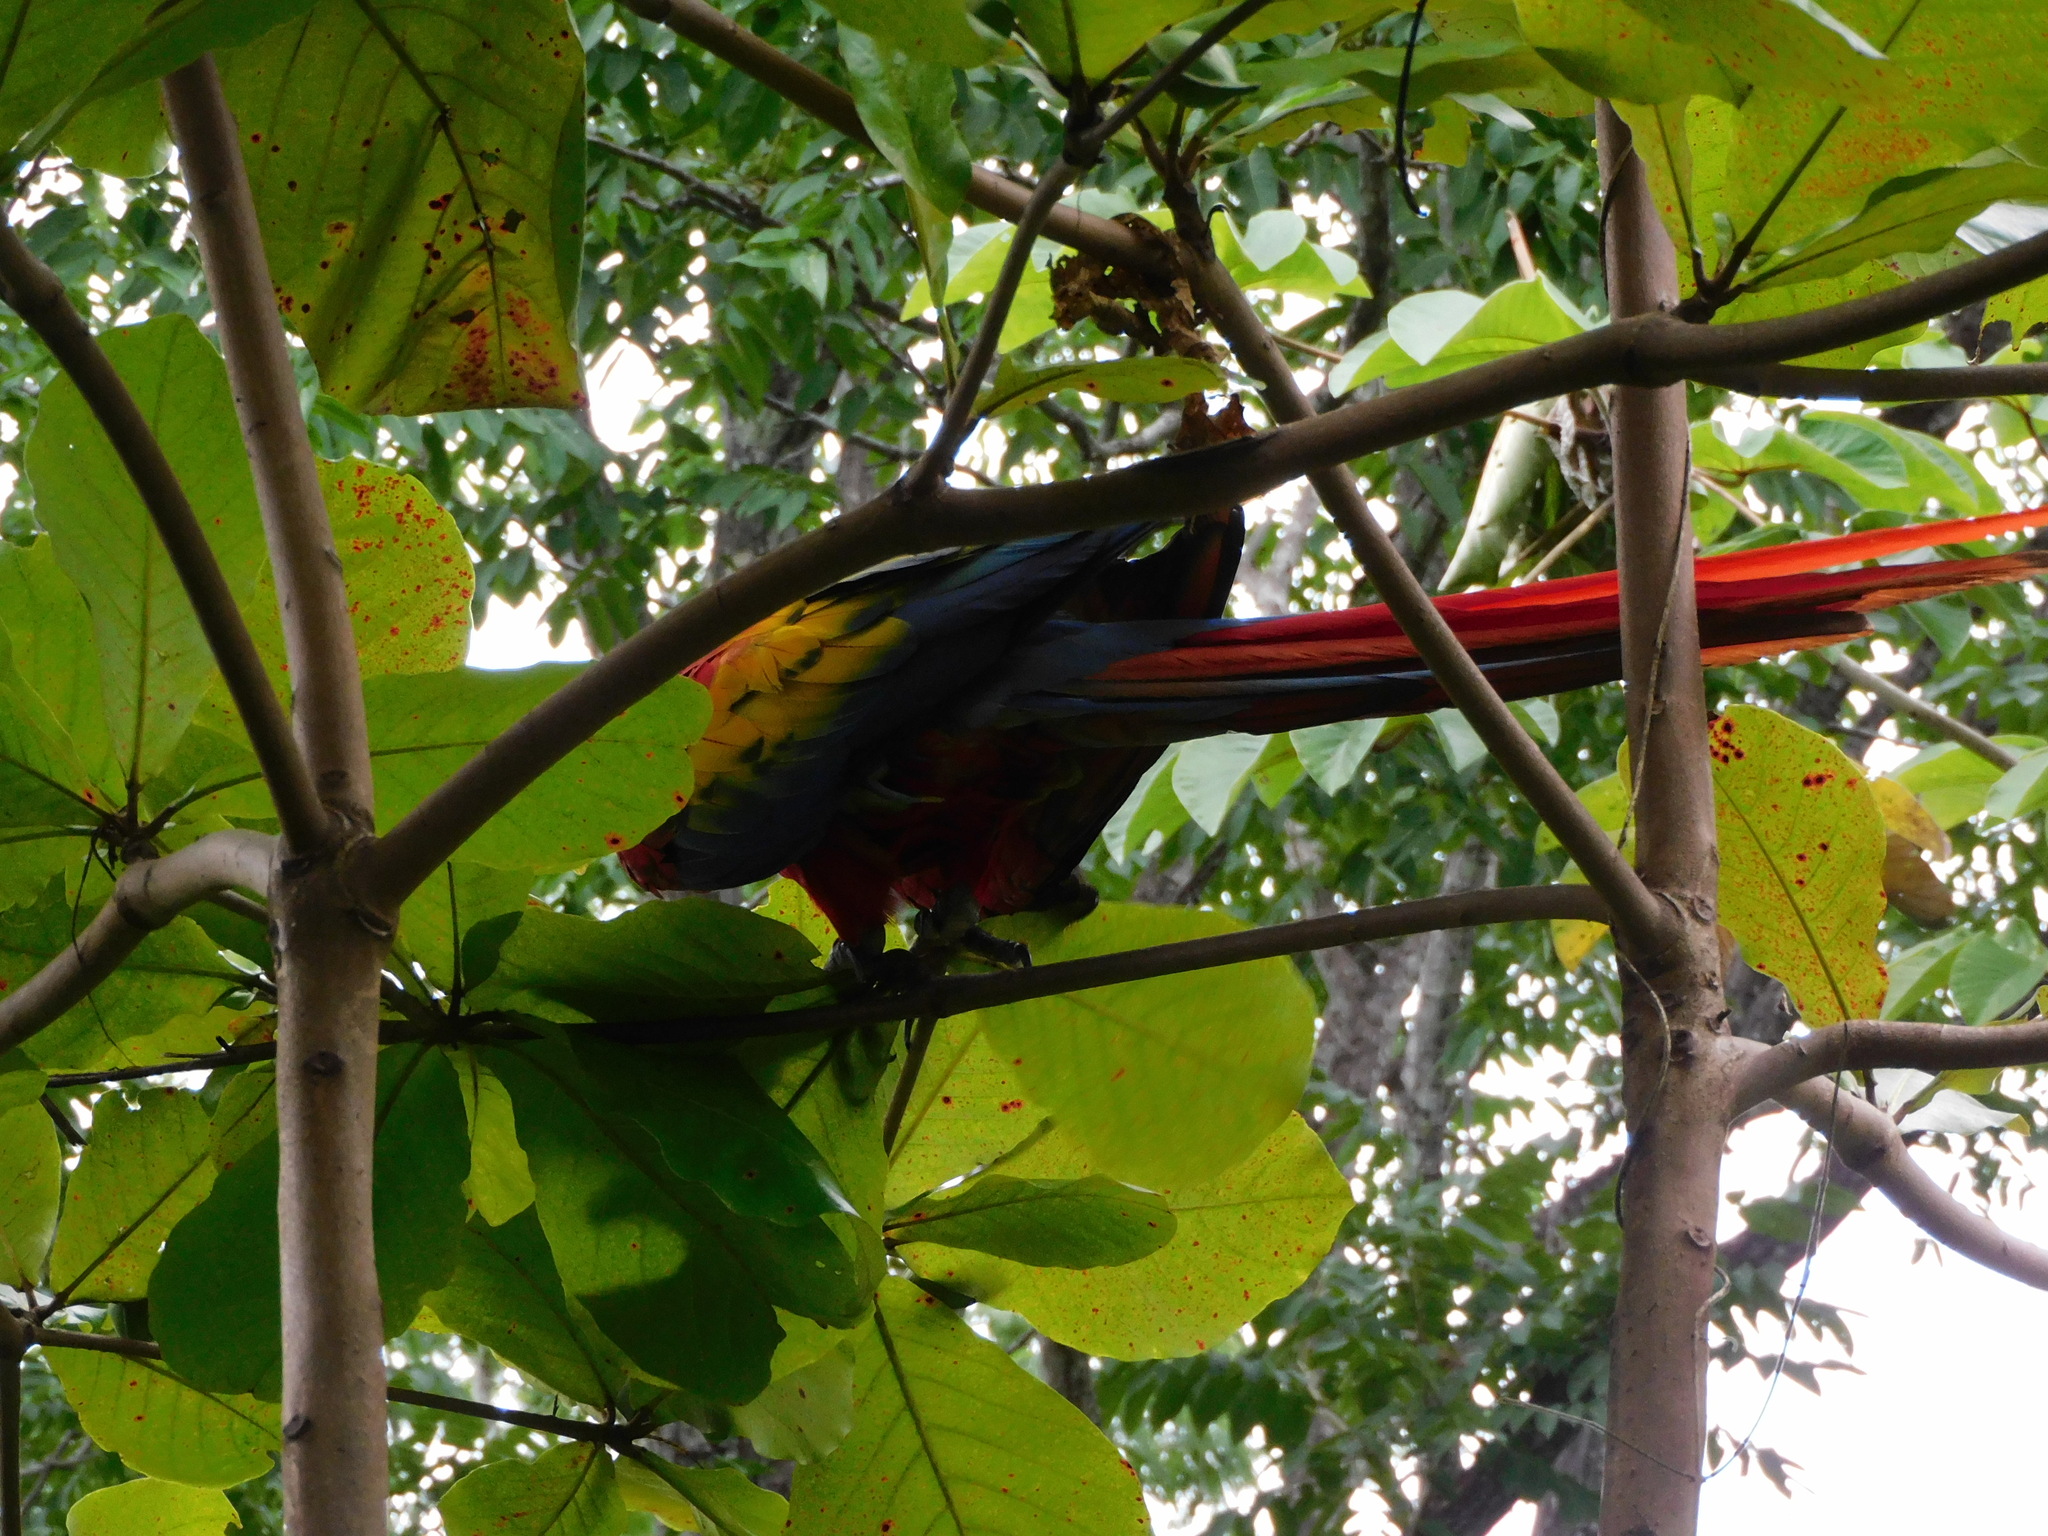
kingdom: Animalia
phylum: Chordata
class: Aves
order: Psittaciformes
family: Psittacidae
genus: Ara
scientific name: Ara macao
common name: Scarlet macaw
